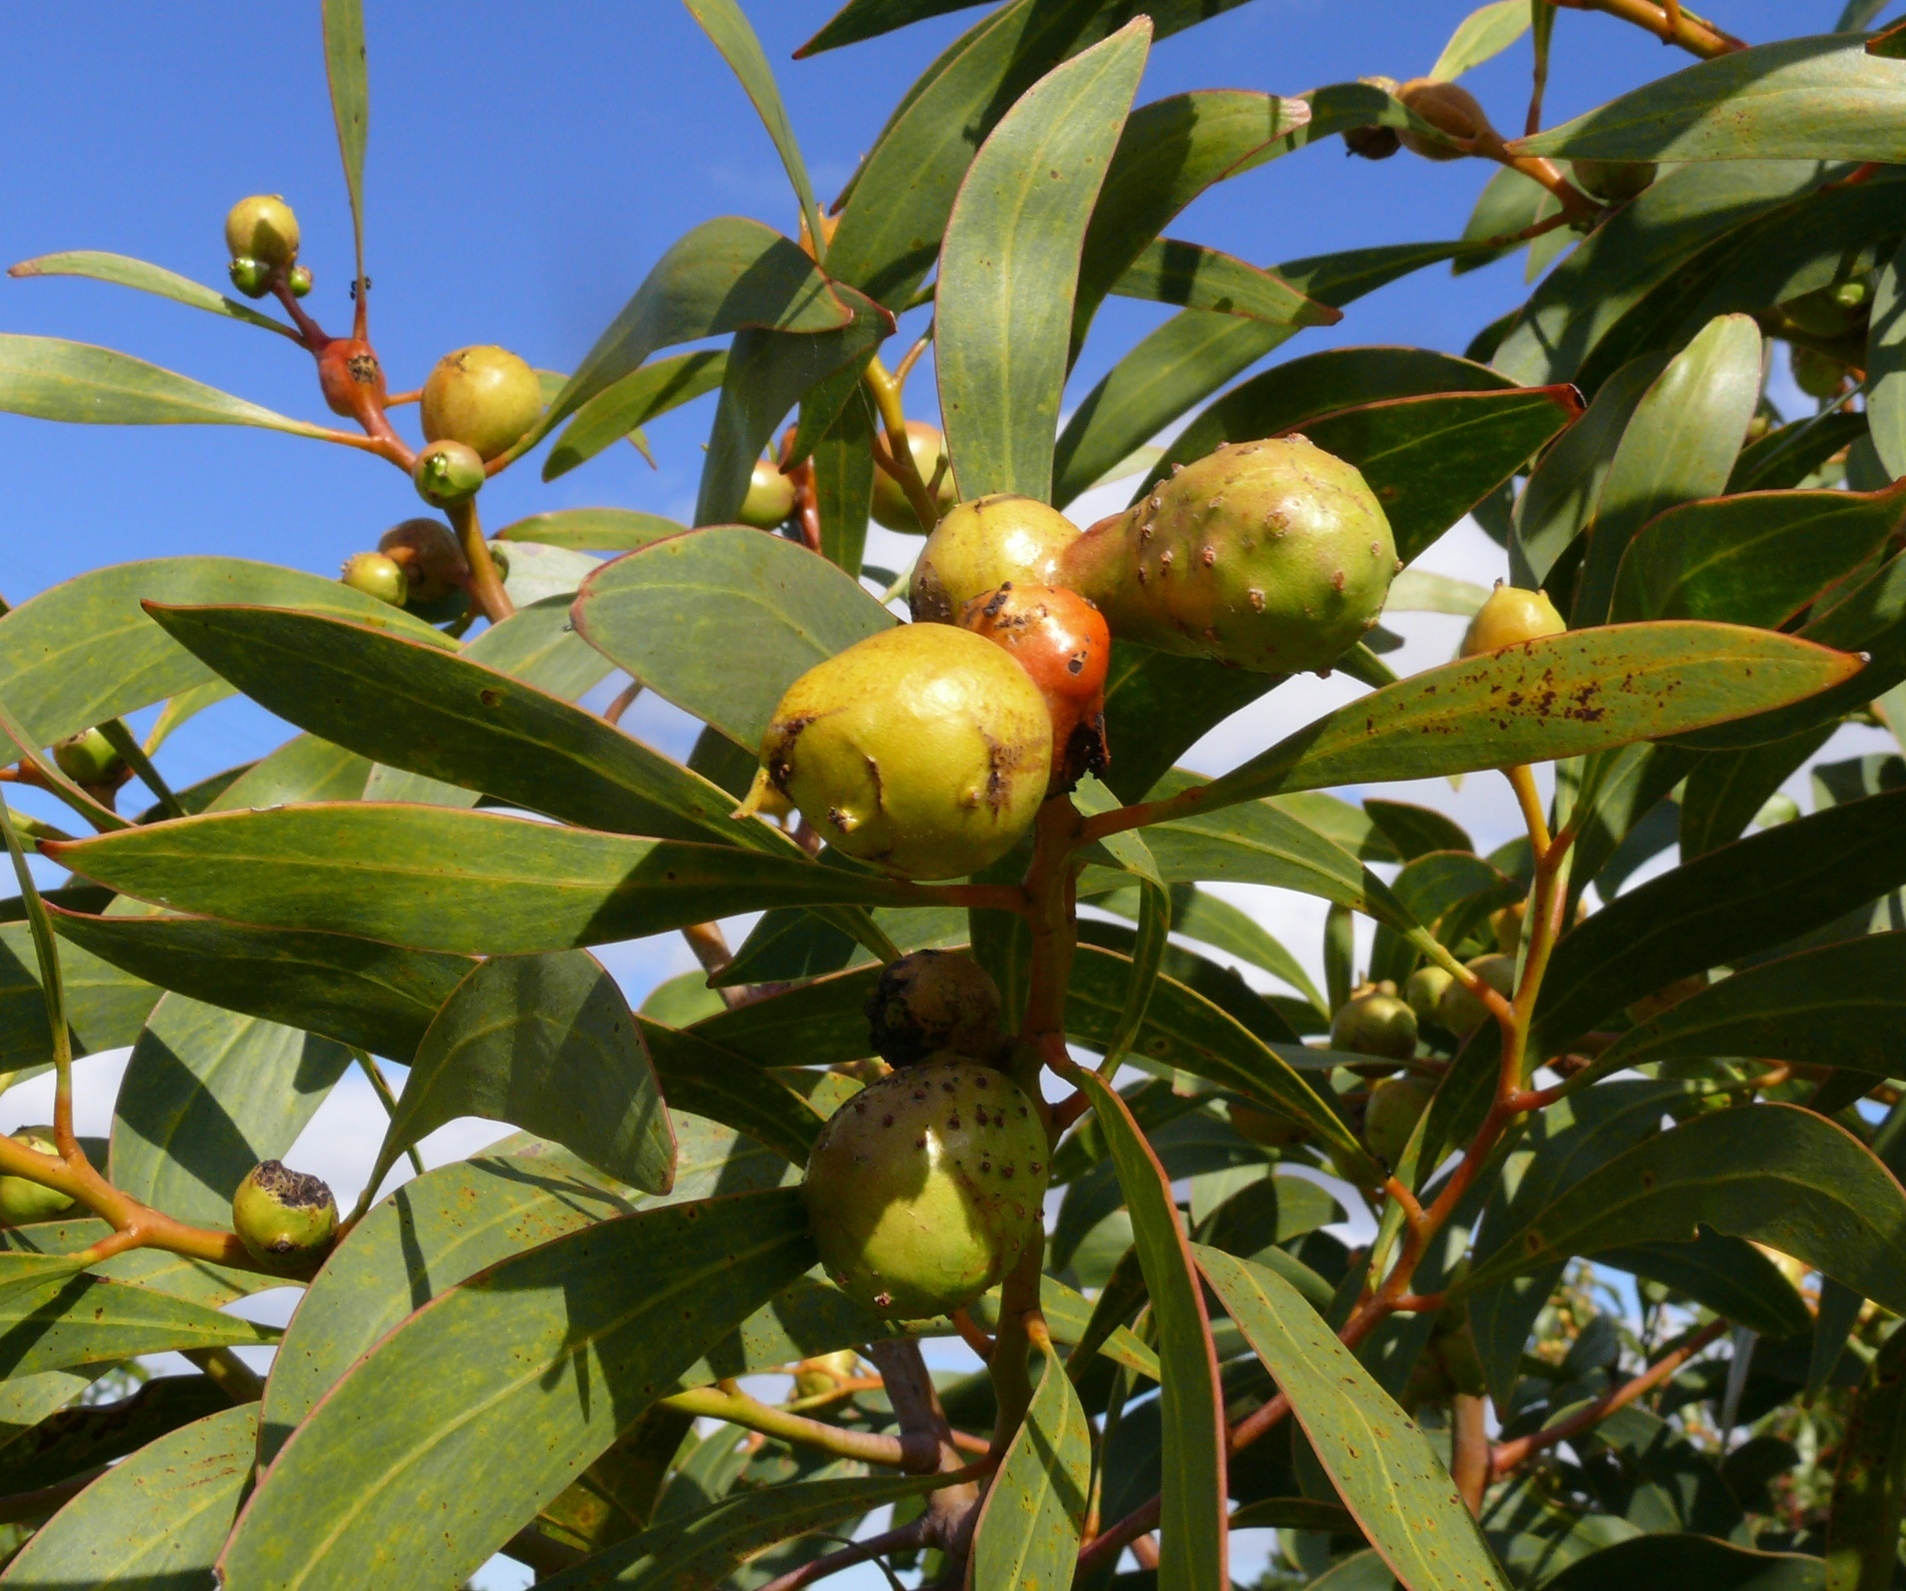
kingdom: Animalia
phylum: Arthropoda
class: Insecta
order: Hymenoptera
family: Pteromalidae
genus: Trichilogaster
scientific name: Trichilogaster signiventris
